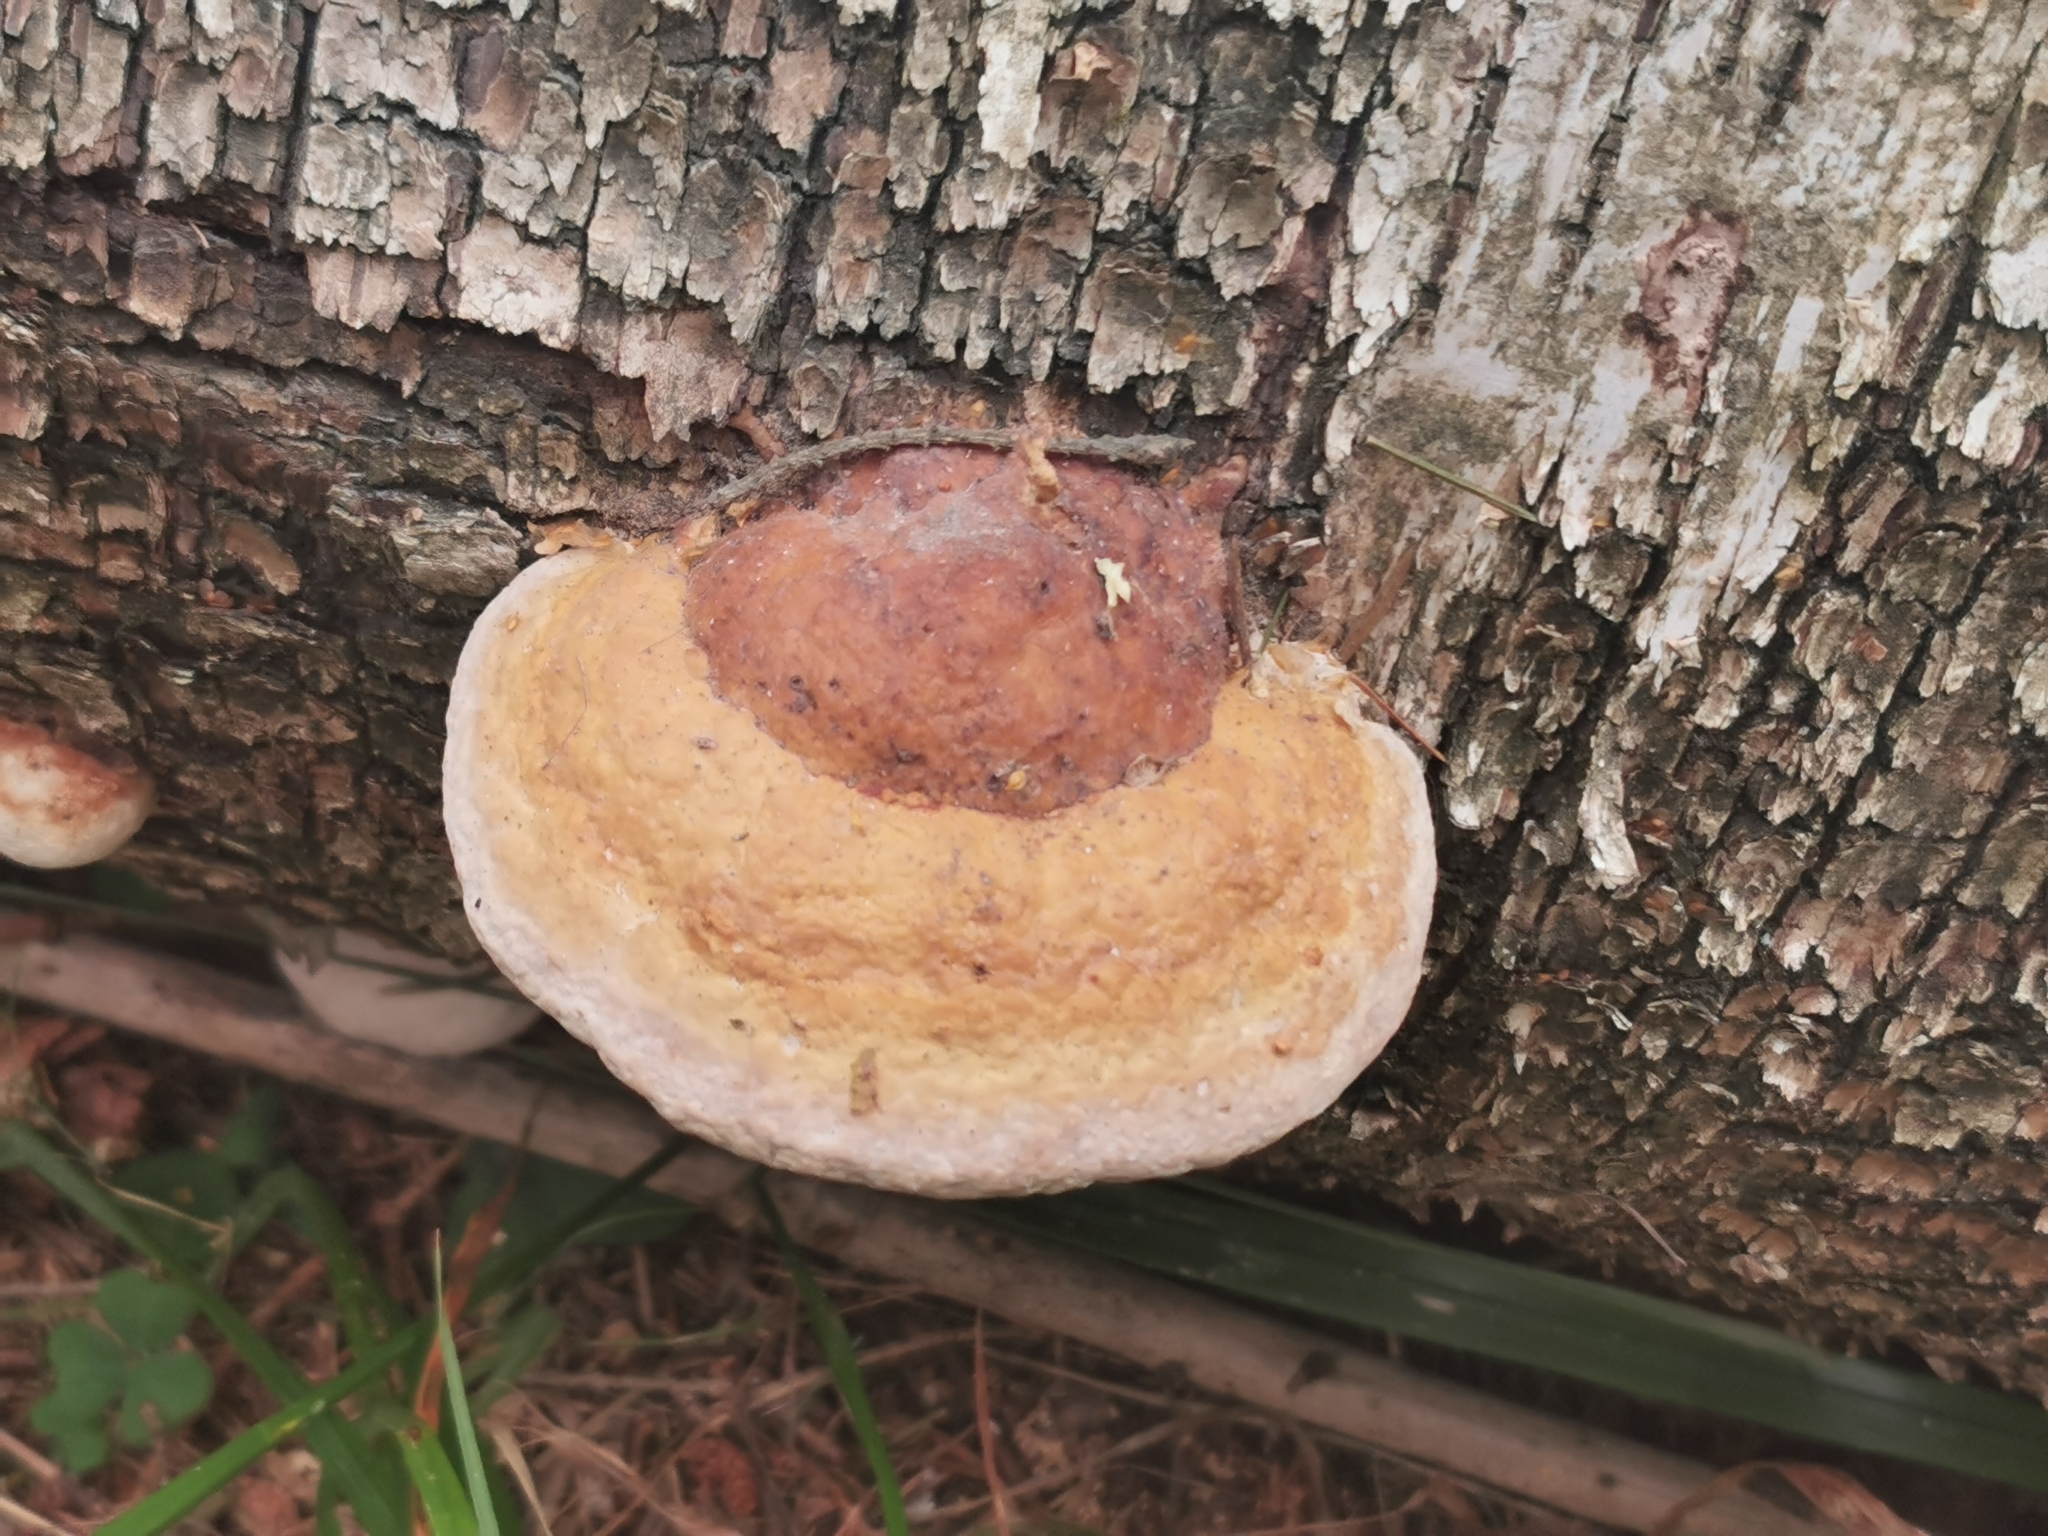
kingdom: Fungi
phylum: Basidiomycota
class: Agaricomycetes
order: Polyporales
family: Fomitopsidaceae
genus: Fomitopsis
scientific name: Fomitopsis pinicola
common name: Red-belted bracket
